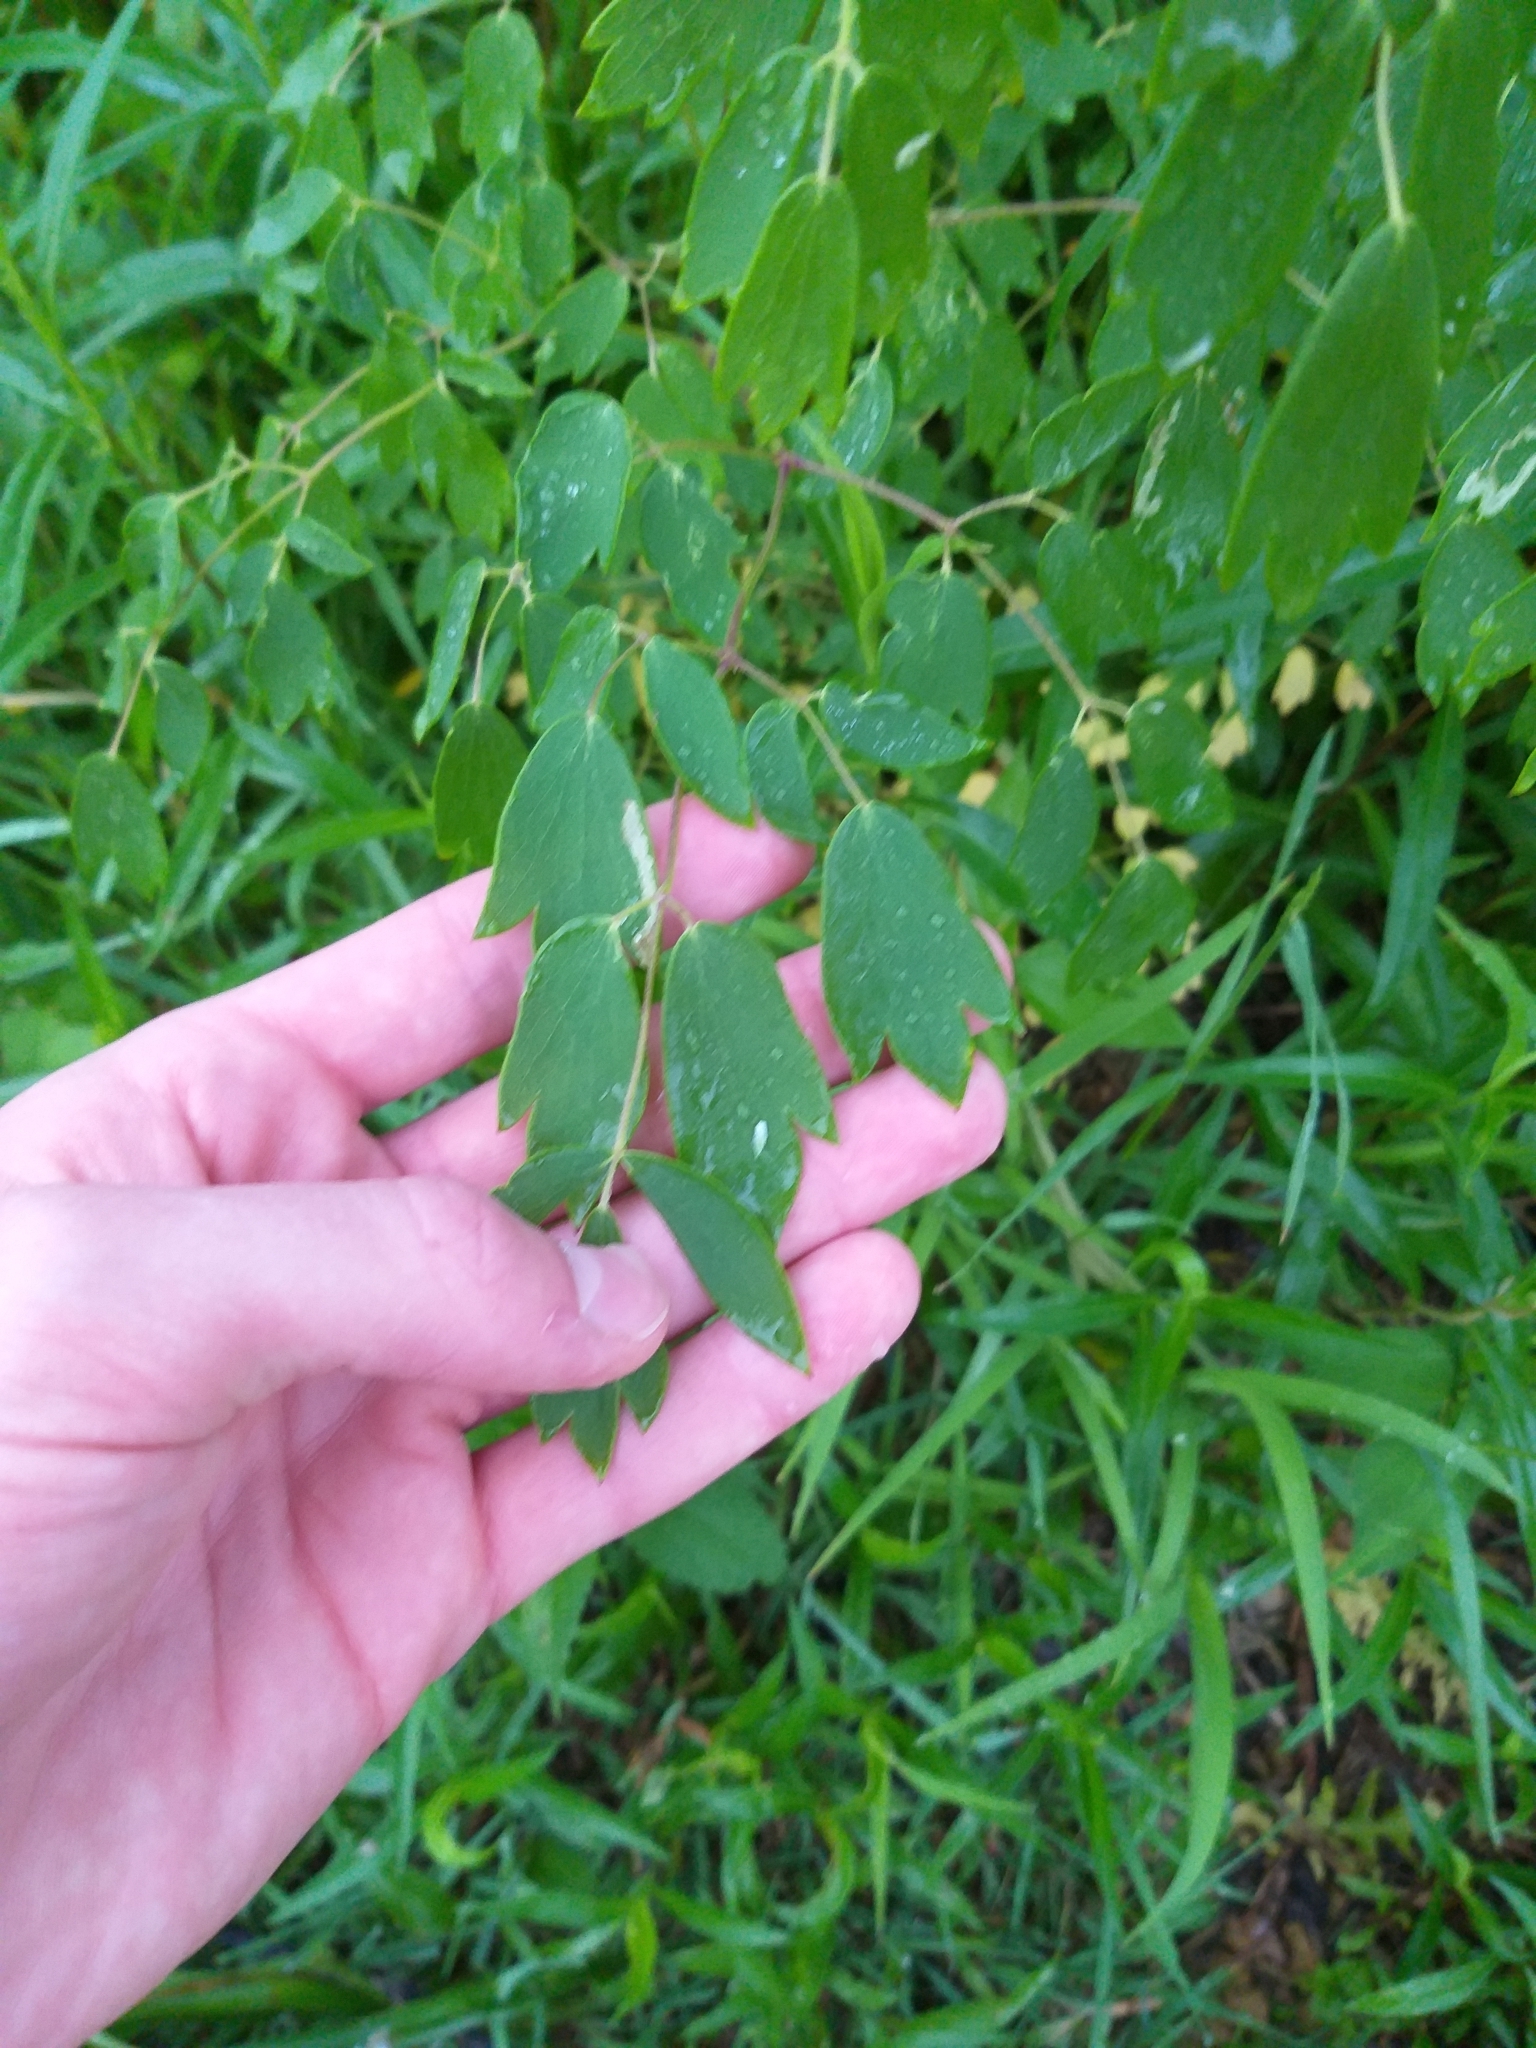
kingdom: Plantae
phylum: Tracheophyta
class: Magnoliopsida
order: Ranunculales
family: Ranunculaceae
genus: Thalictrum
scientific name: Thalictrum dasycarpum
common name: Purple meadow-rue
